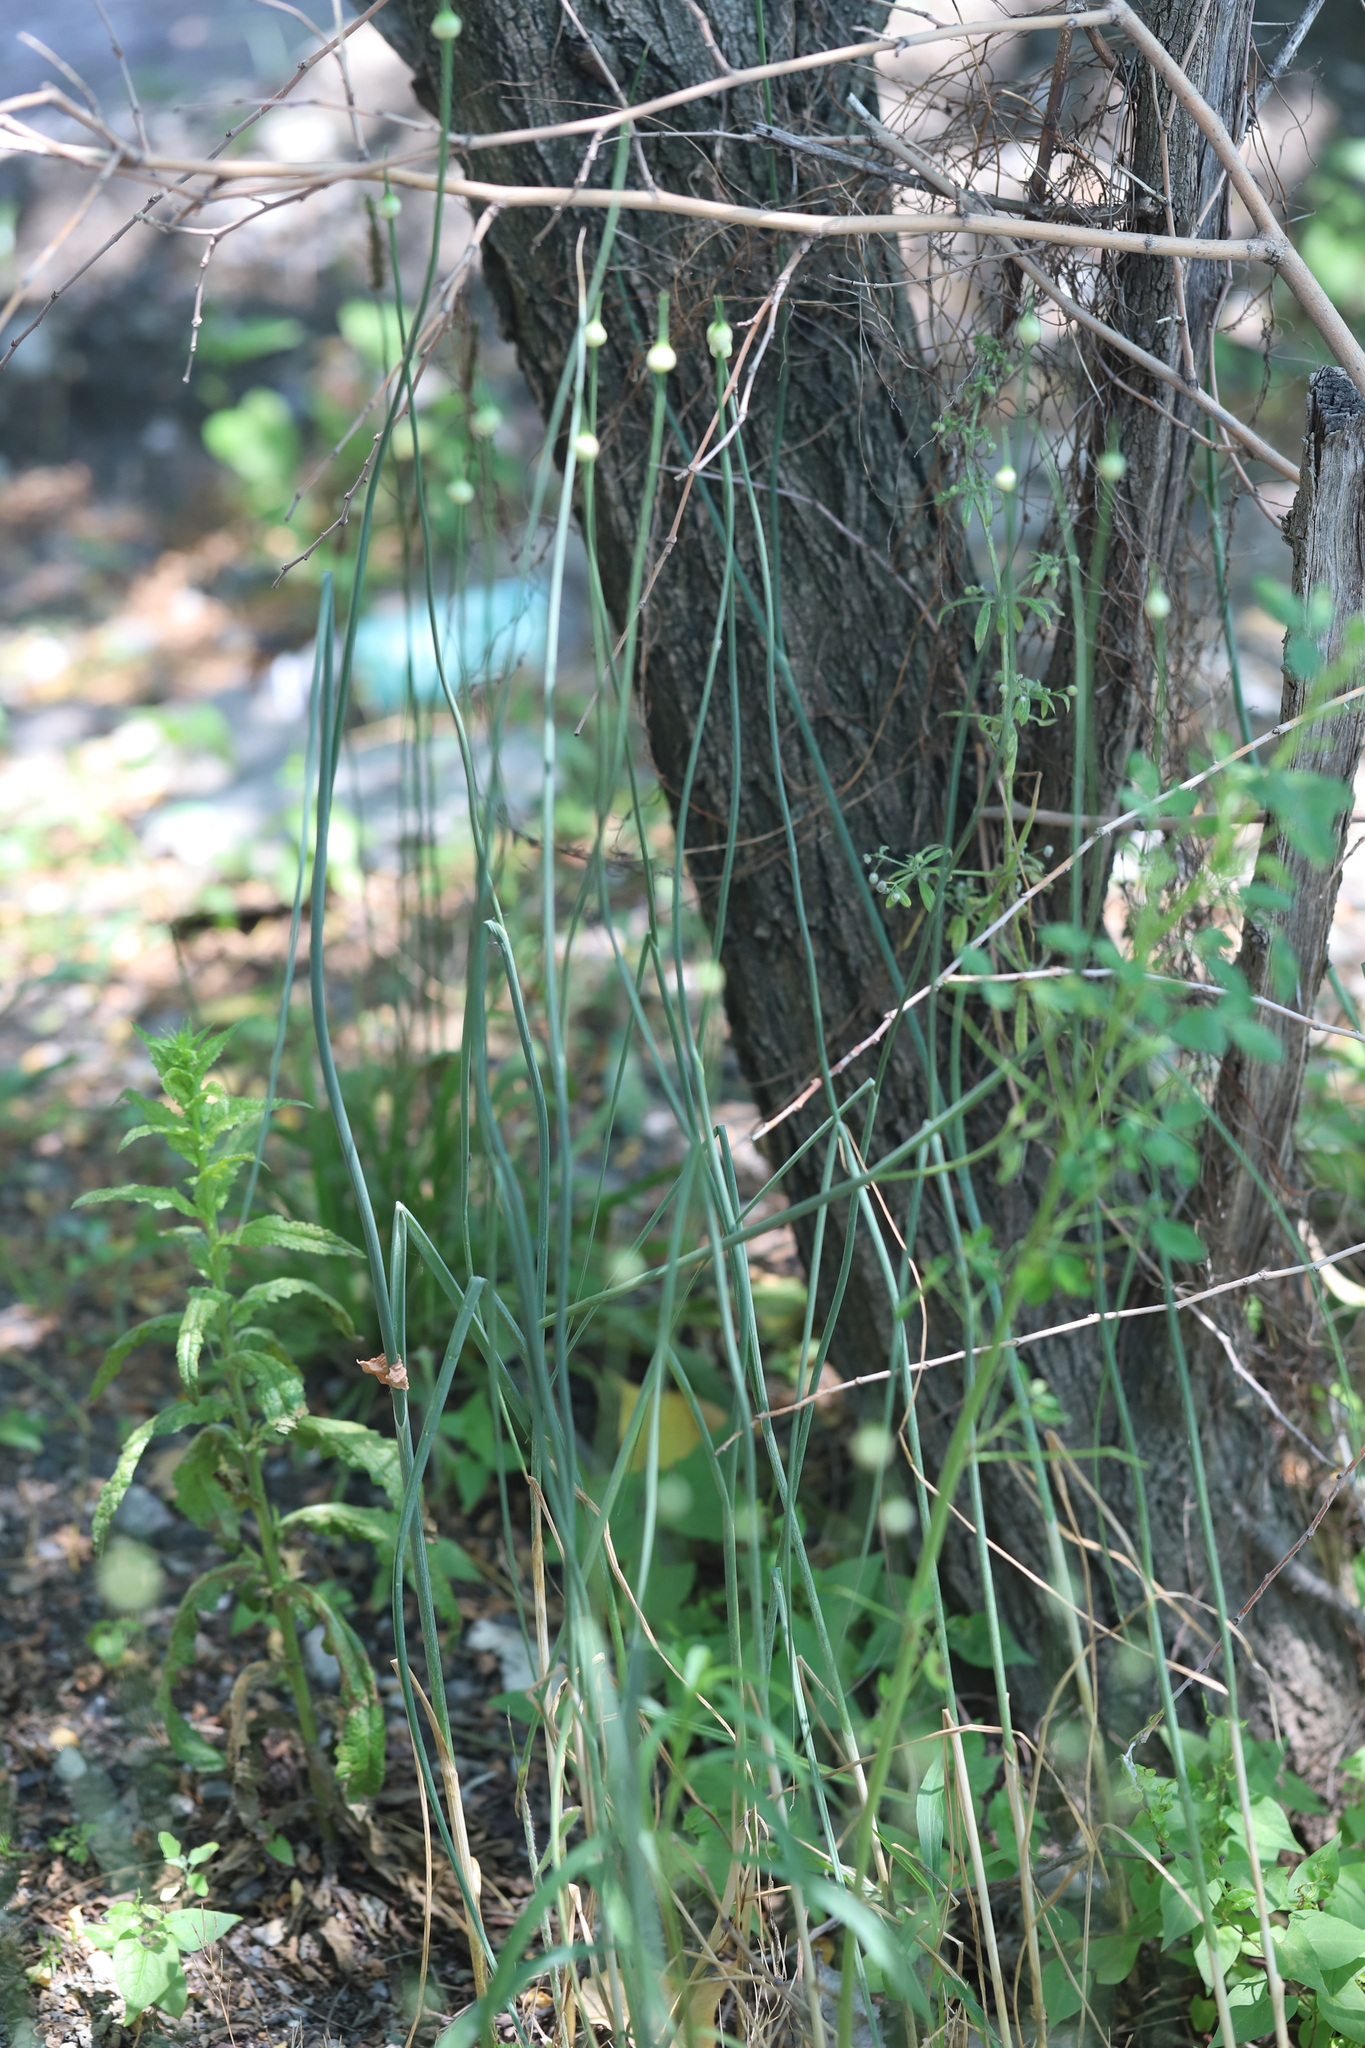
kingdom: Plantae
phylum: Tracheophyta
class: Liliopsida
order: Asparagales
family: Amaryllidaceae
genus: Allium
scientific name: Allium canadense
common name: Meadow garlic
